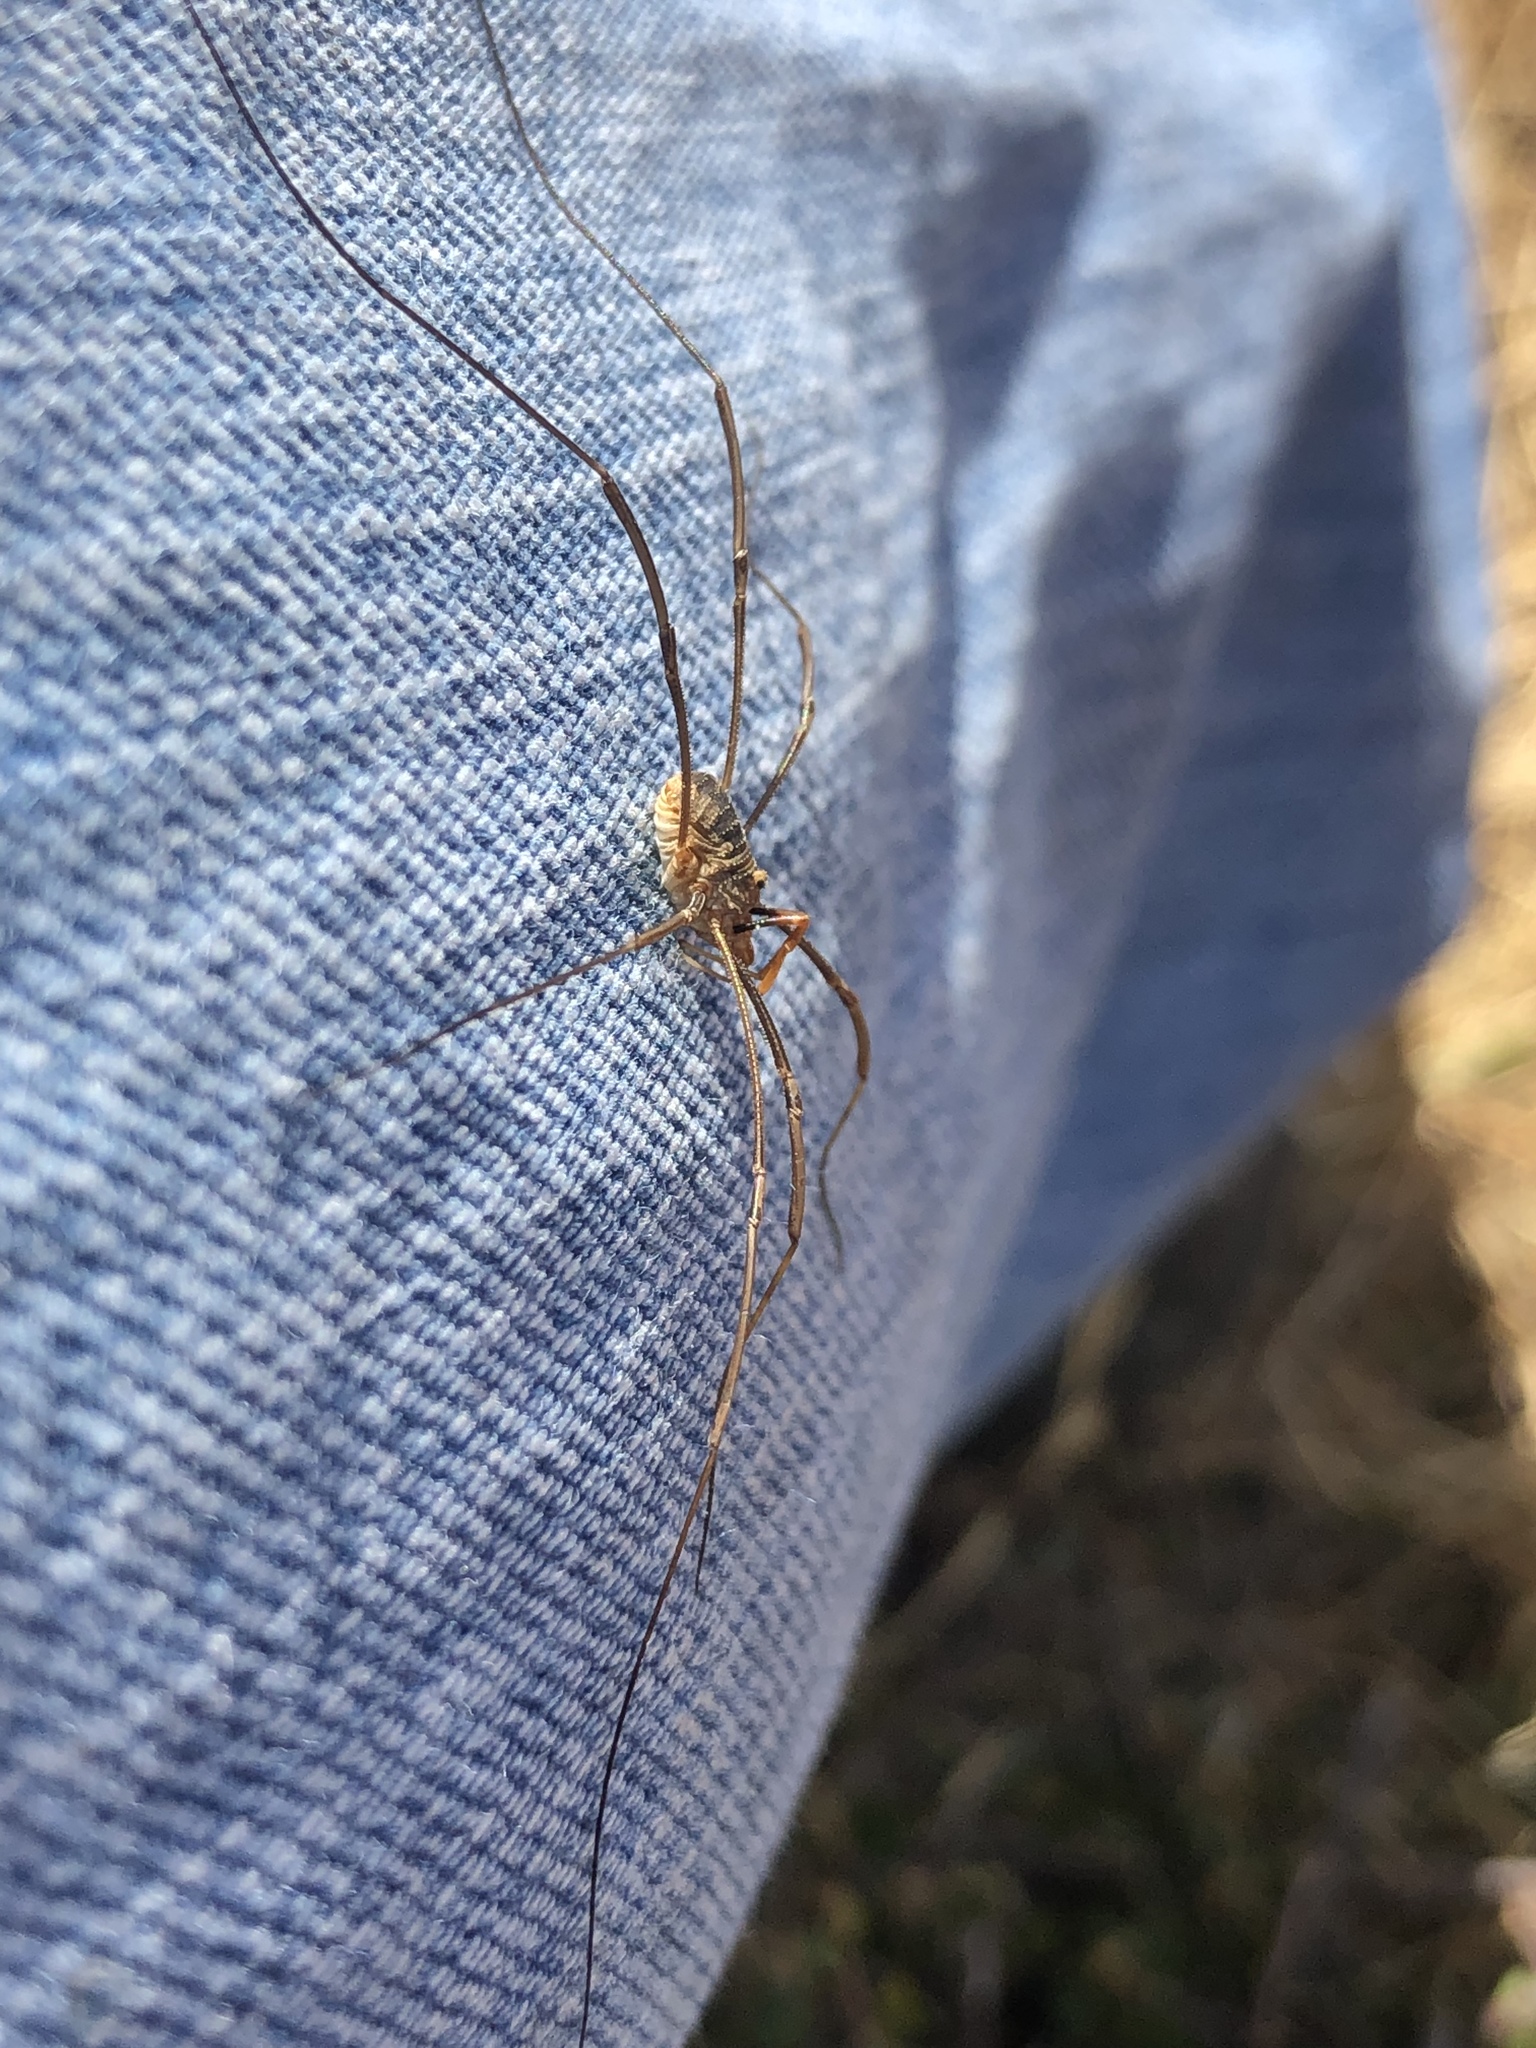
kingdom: Animalia
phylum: Arthropoda
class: Arachnida
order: Opiliones
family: Phalangiidae
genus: Phalangium
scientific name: Phalangium opilio
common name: Daddy longleg
